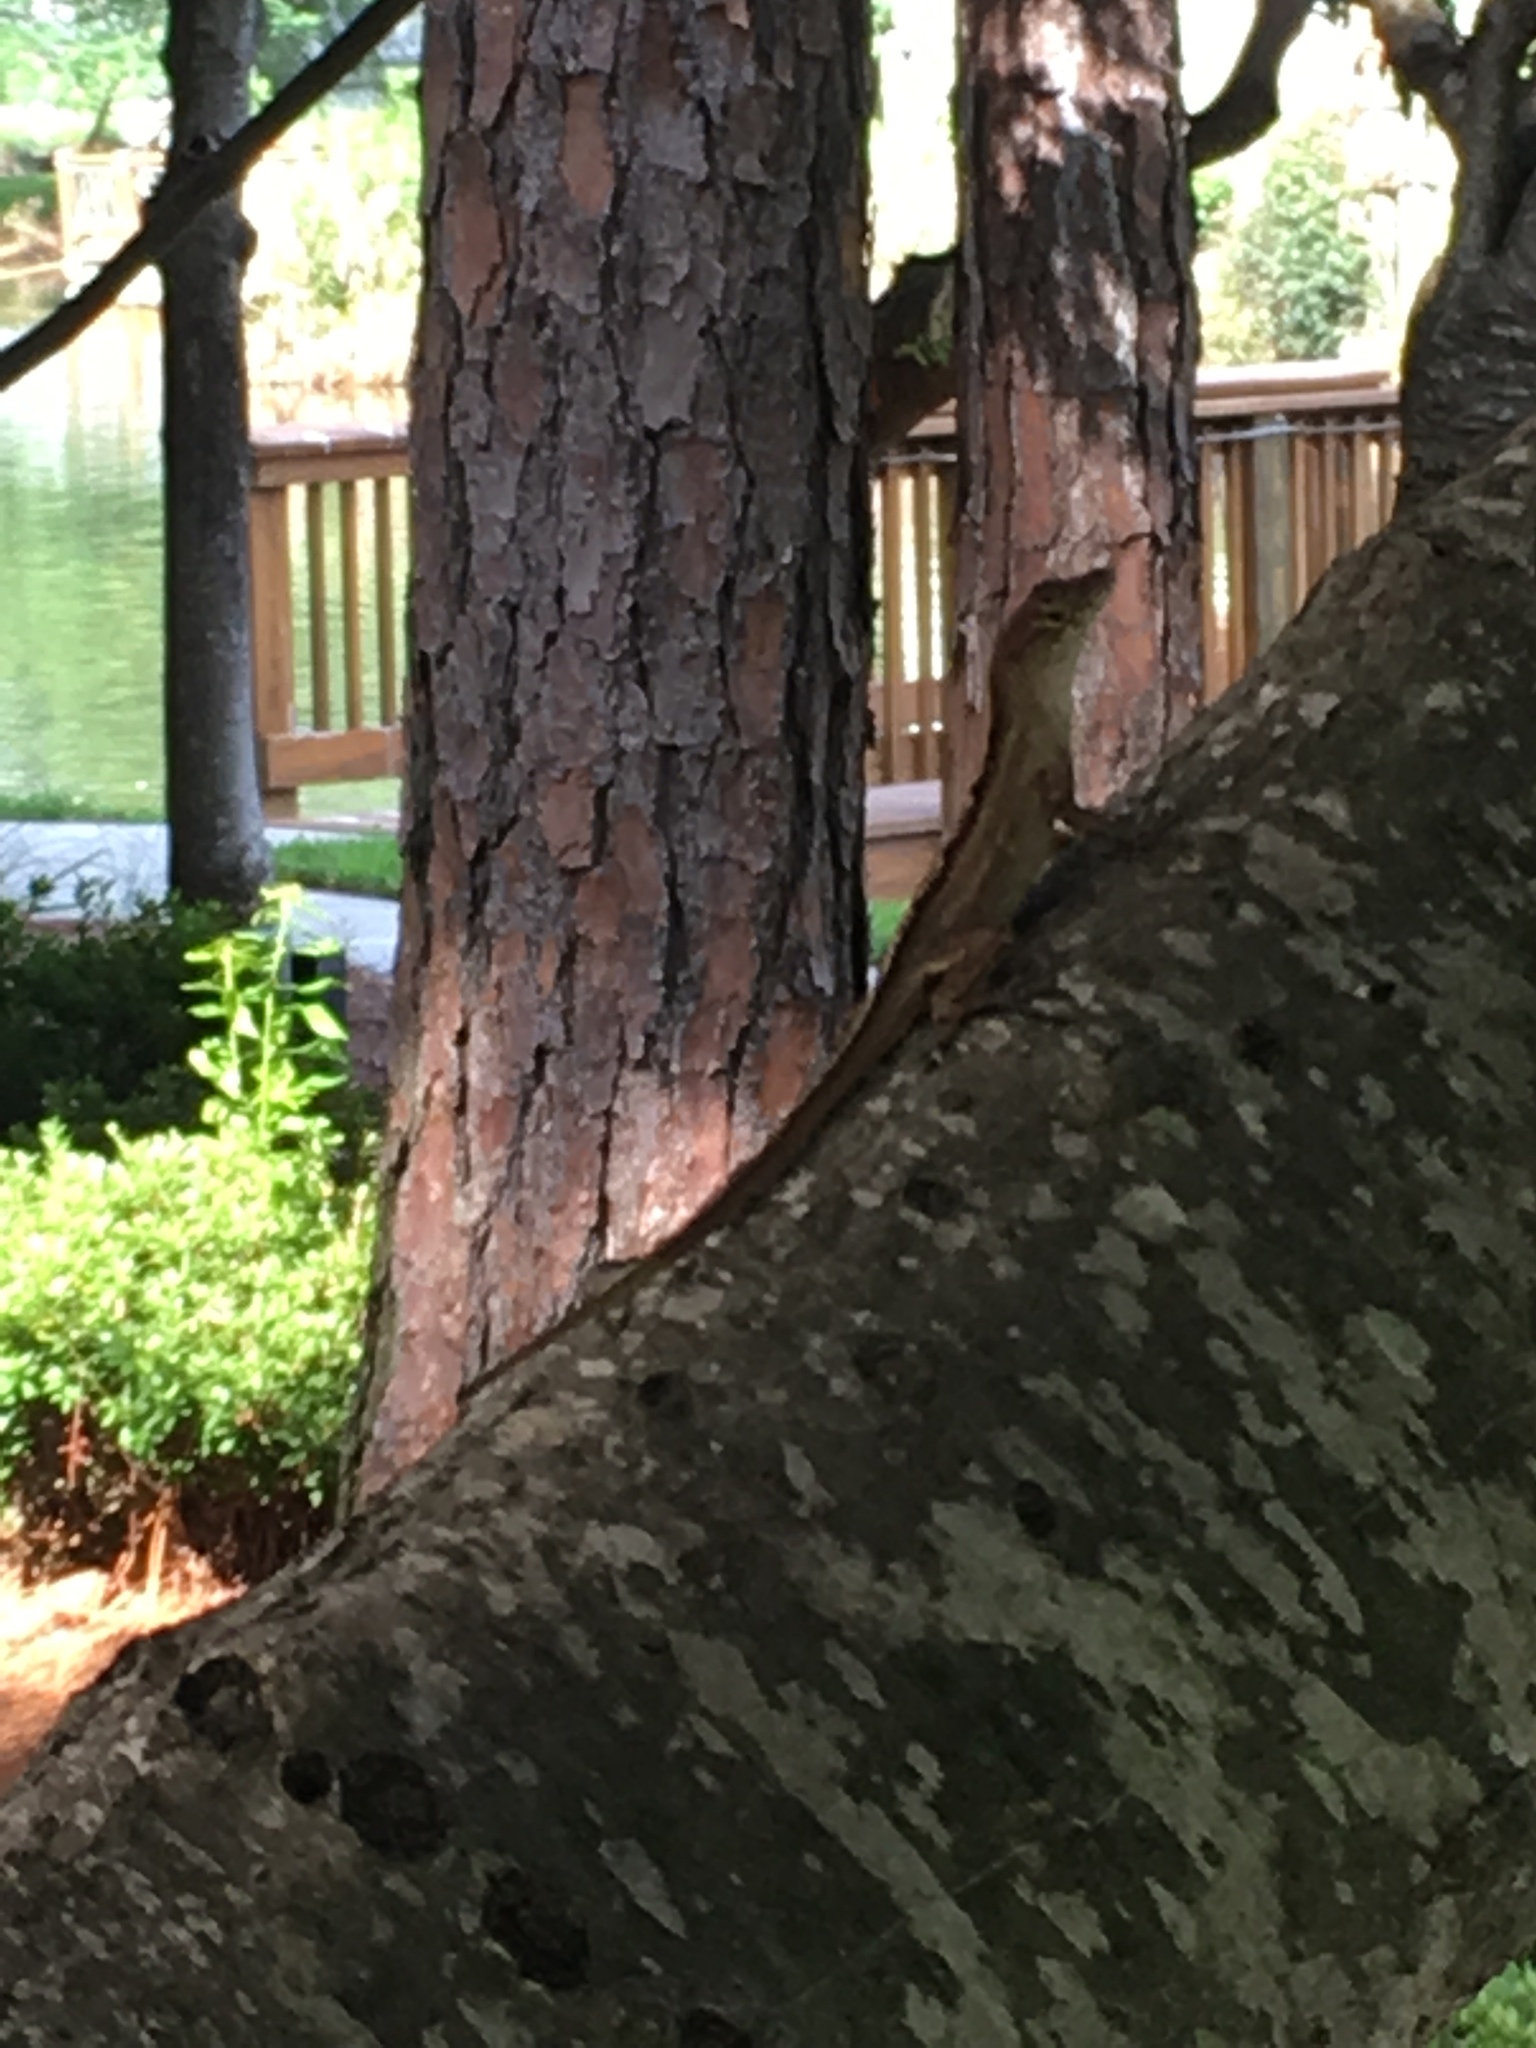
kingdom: Animalia
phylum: Chordata
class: Squamata
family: Dactyloidae
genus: Anolis
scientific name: Anolis sagrei
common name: Brown anole
